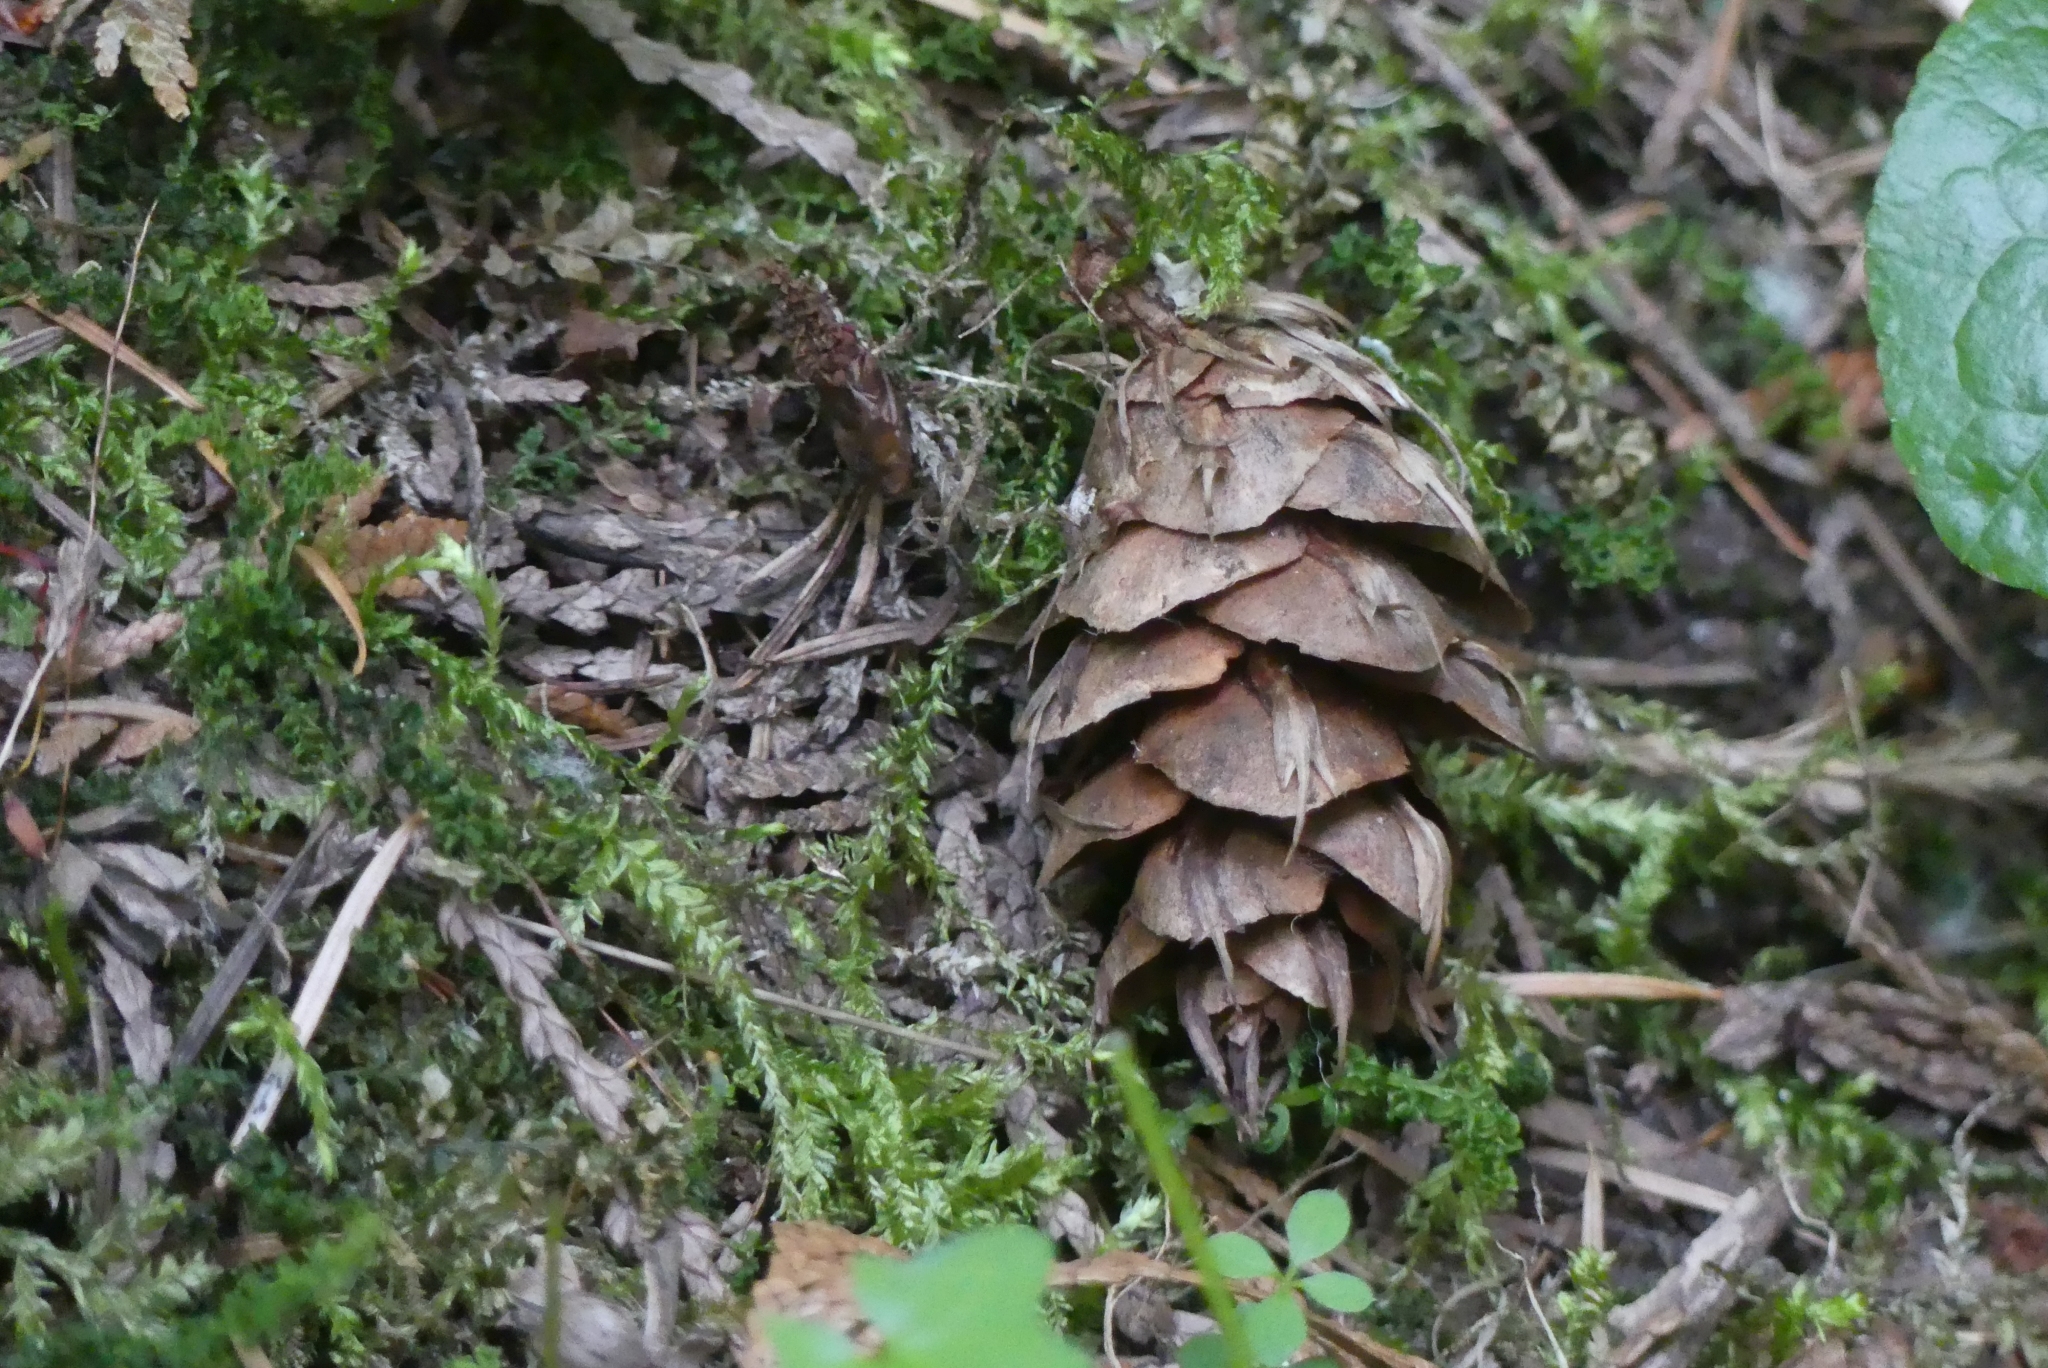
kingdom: Plantae
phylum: Tracheophyta
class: Pinopsida
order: Pinales
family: Pinaceae
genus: Pseudotsuga
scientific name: Pseudotsuga menziesii
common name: Douglas fir
